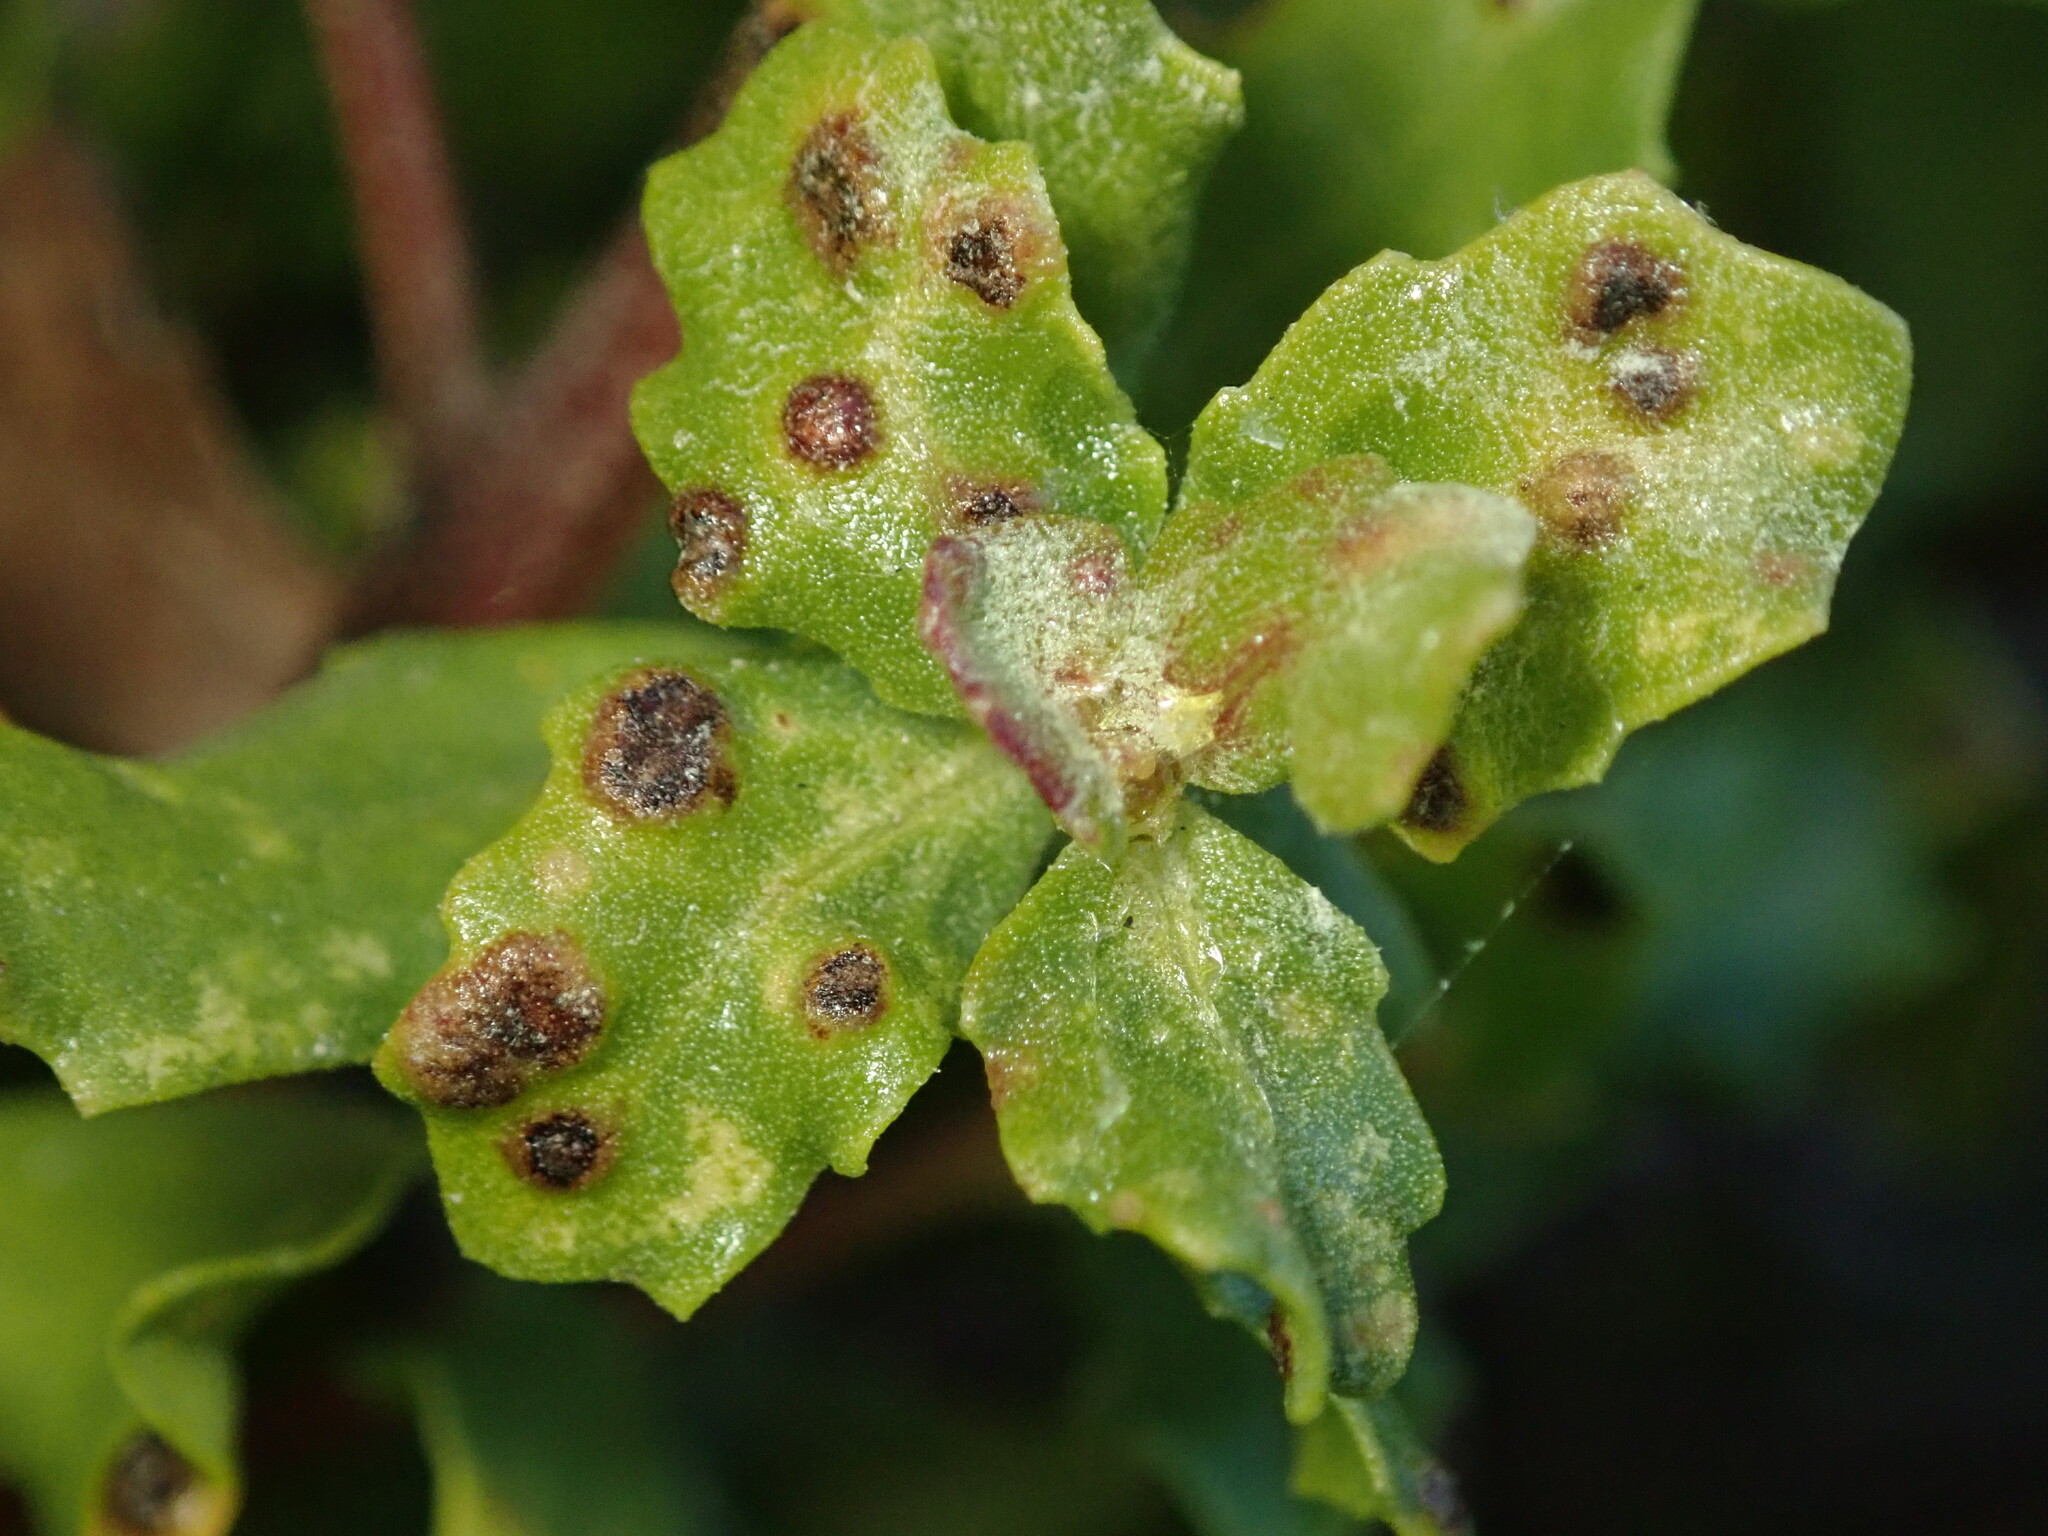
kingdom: Animalia
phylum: Arthropoda
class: Arachnida
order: Trombidiformes
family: Eriophyidae
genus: Aceria
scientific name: Aceria
